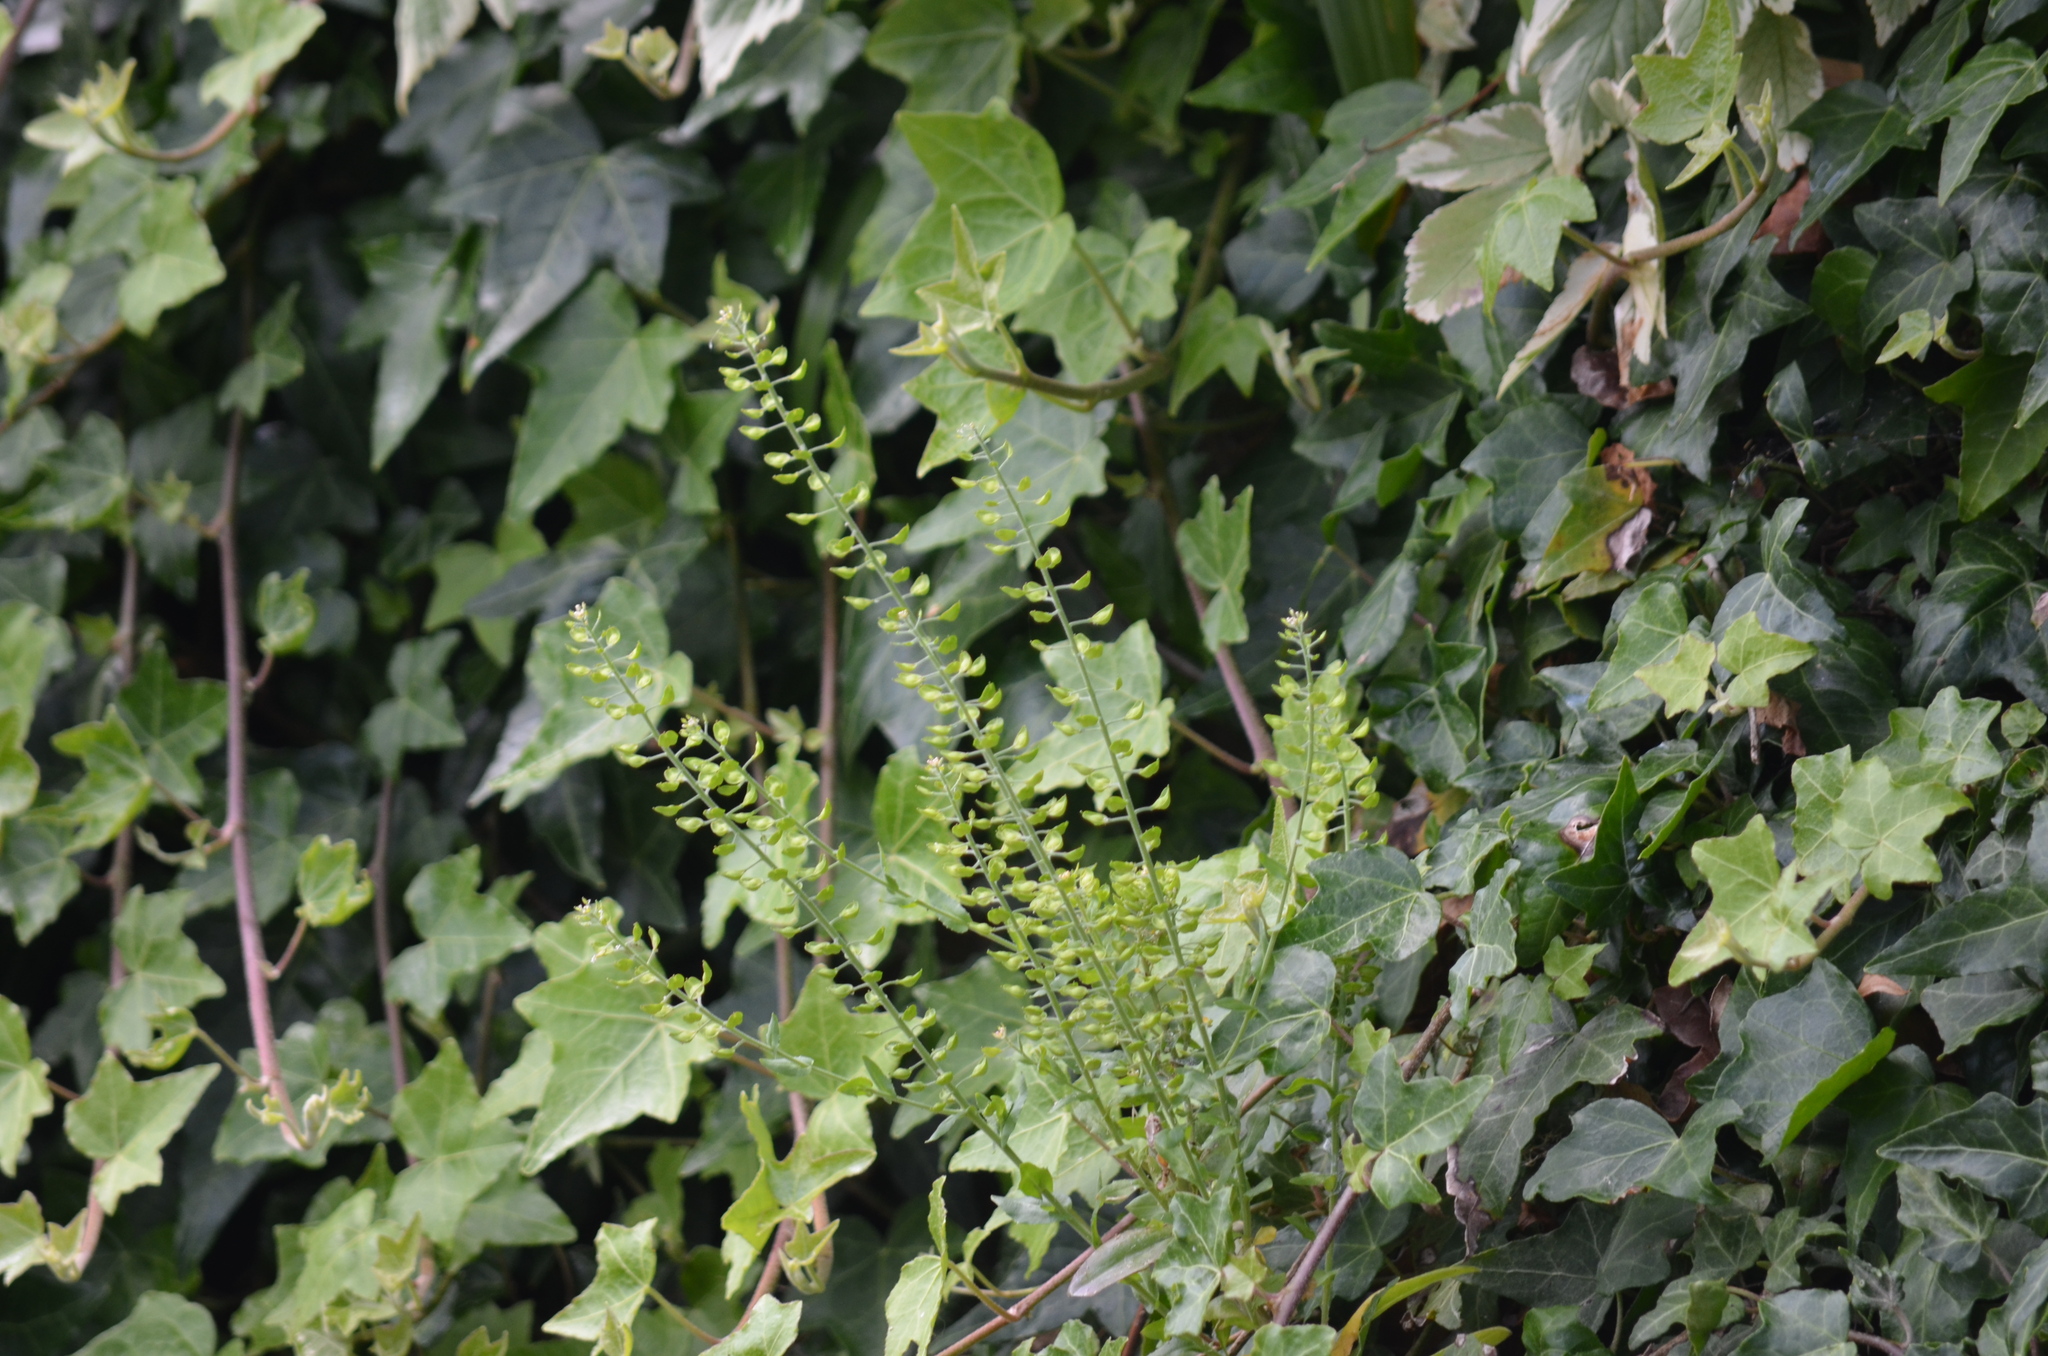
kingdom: Plantae
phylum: Tracheophyta
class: Magnoliopsida
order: Brassicales
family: Brassicaceae
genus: Lepidium
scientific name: Lepidium campestre
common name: Field pepperwort
